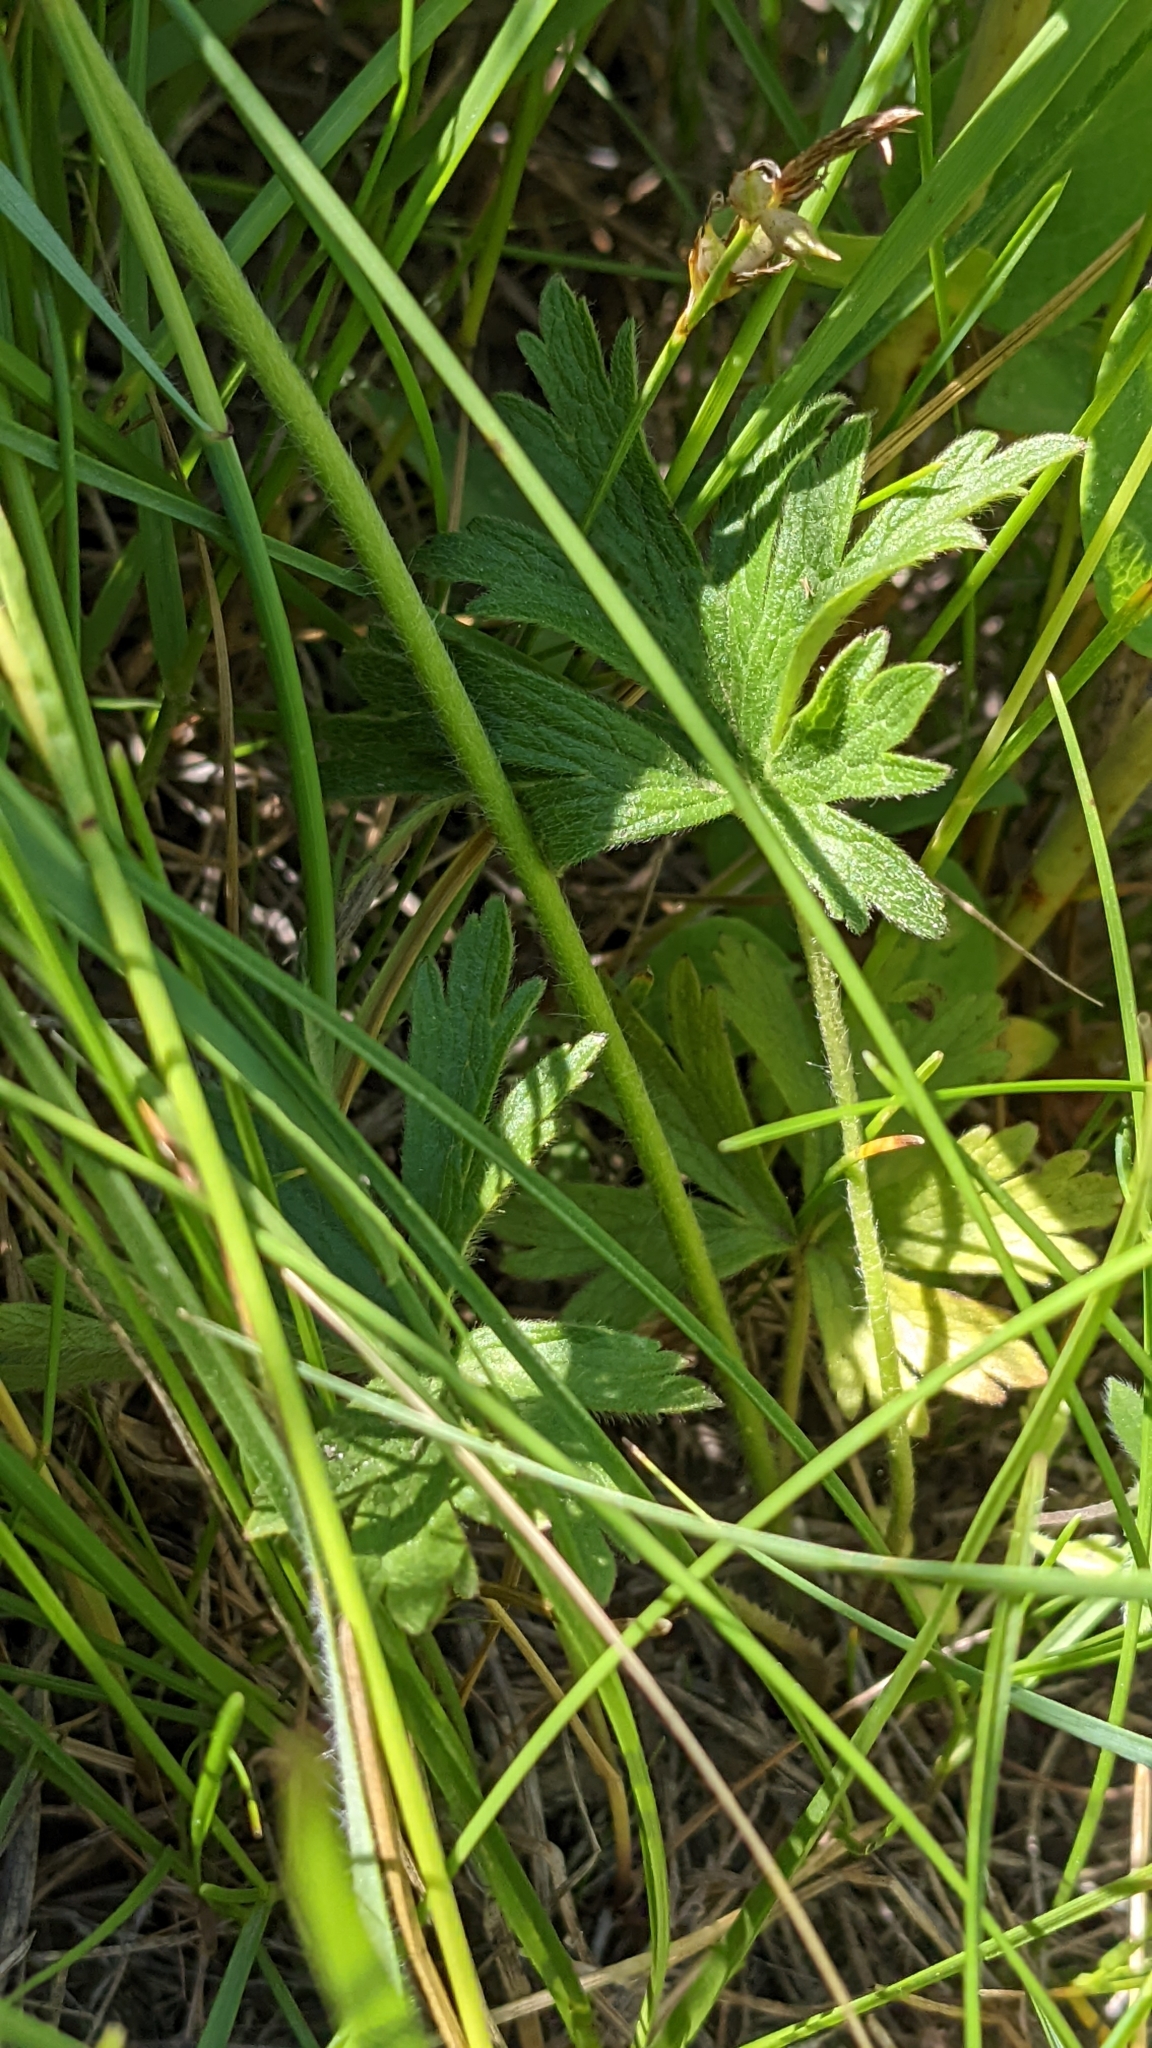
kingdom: Plantae
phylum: Tracheophyta
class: Magnoliopsida
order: Ranunculales
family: Ranunculaceae
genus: Anemone
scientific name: Anemone cylindrica
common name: Candle anemone
